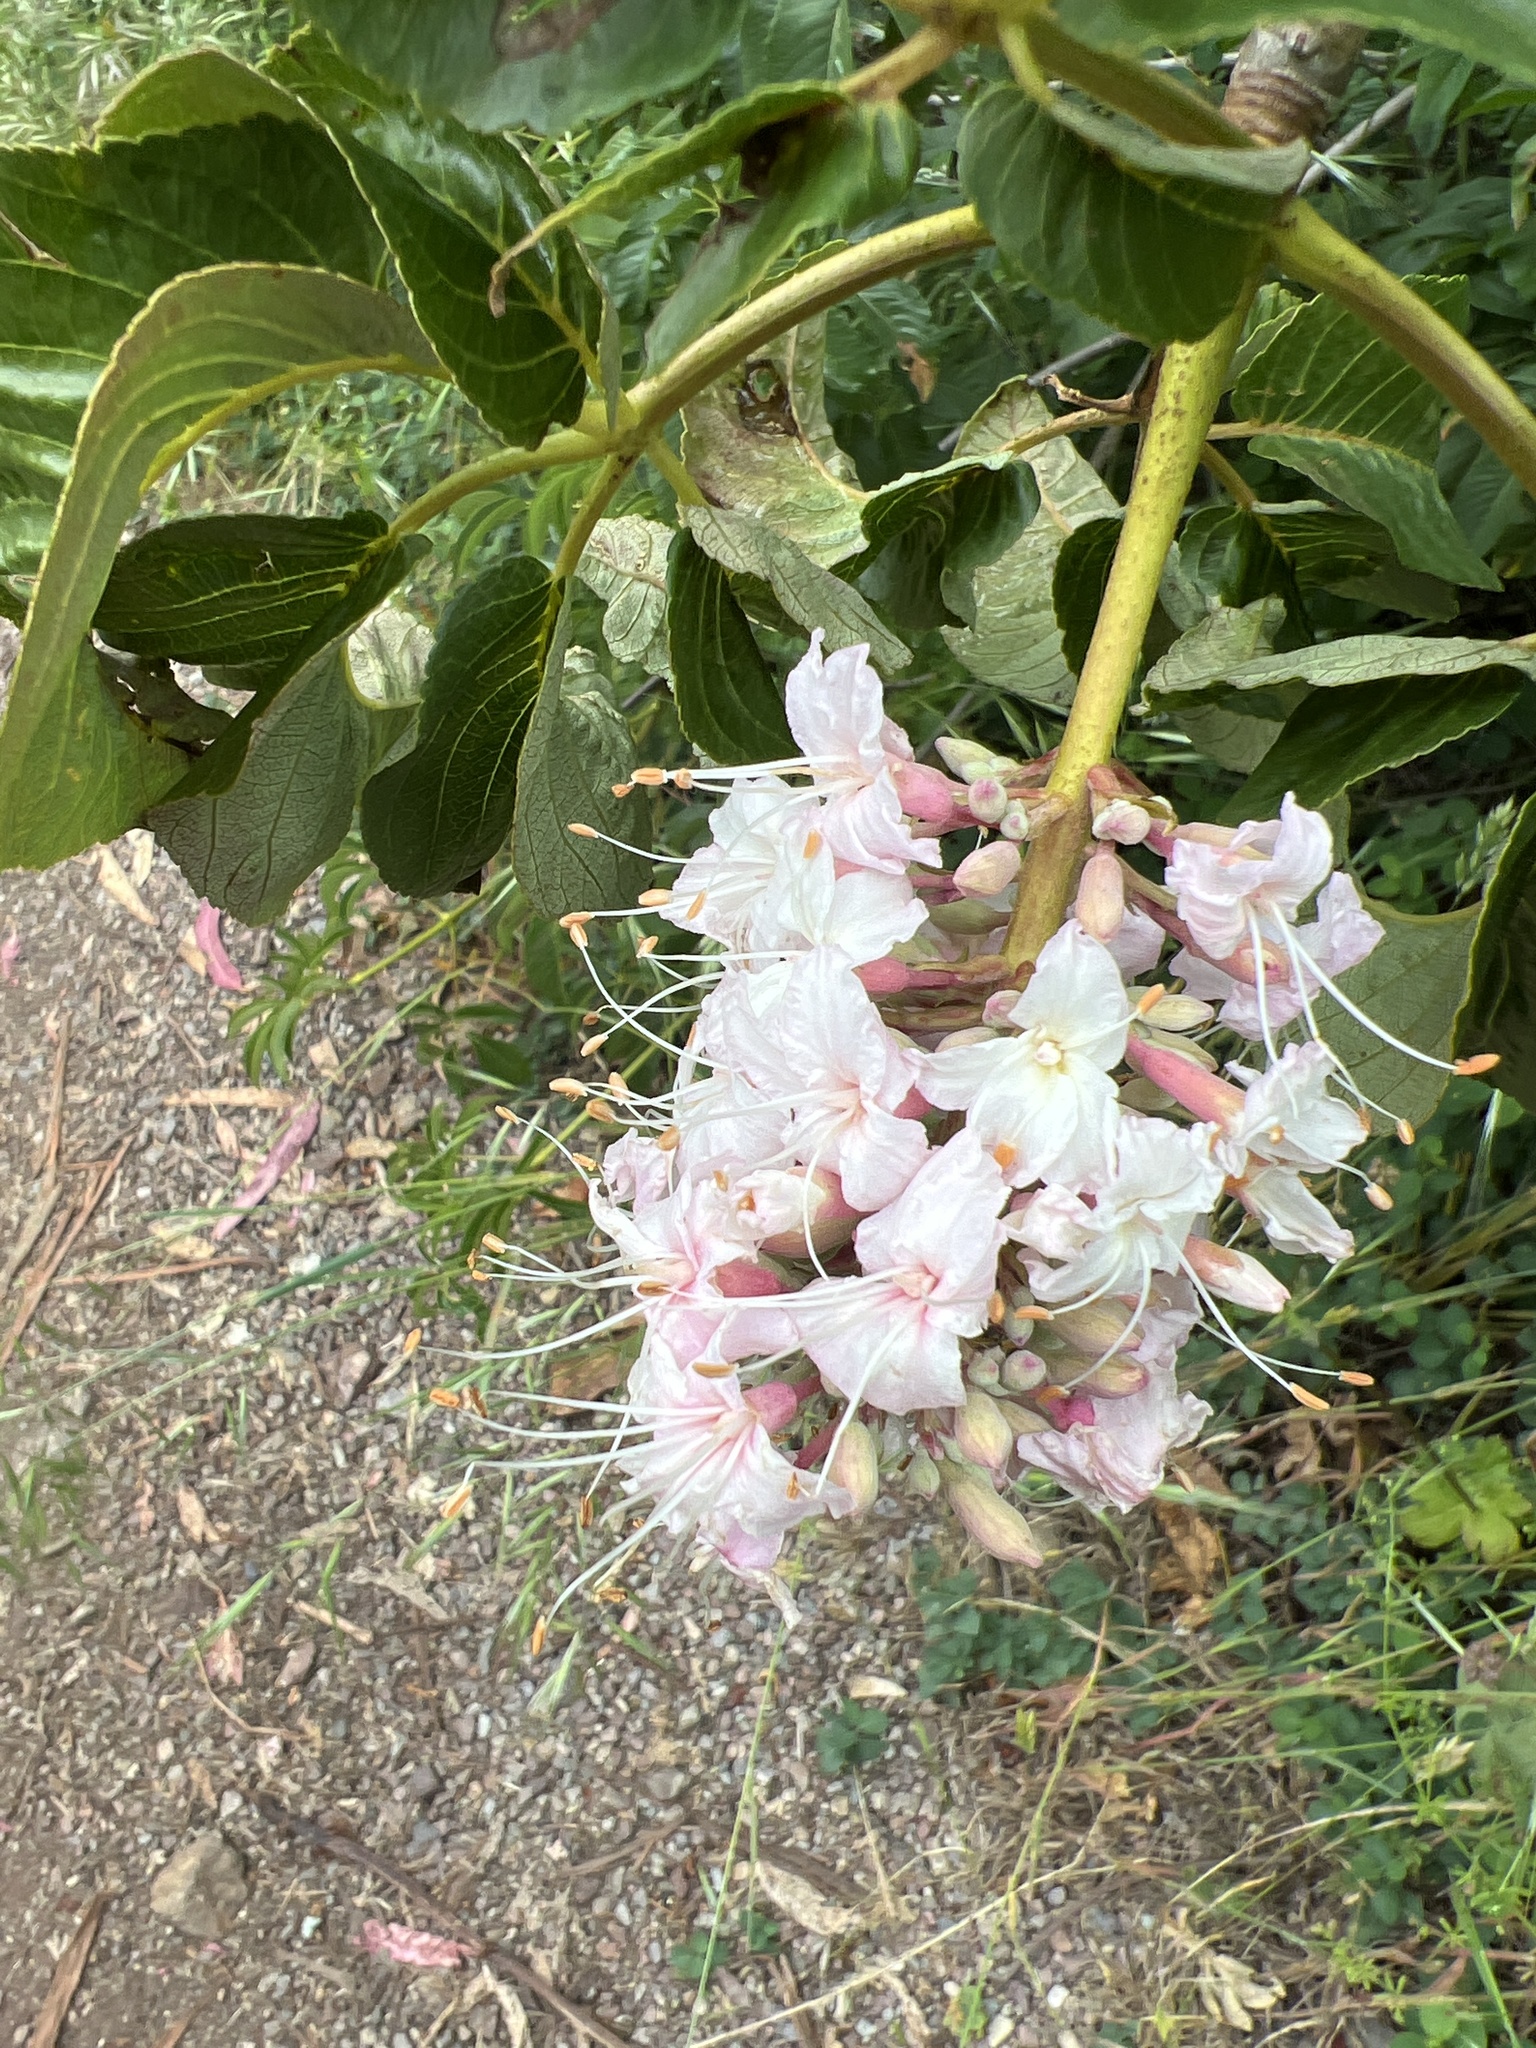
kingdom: Plantae
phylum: Tracheophyta
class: Magnoliopsida
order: Sapindales
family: Sapindaceae
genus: Aesculus
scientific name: Aesculus californica
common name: California buckeye
